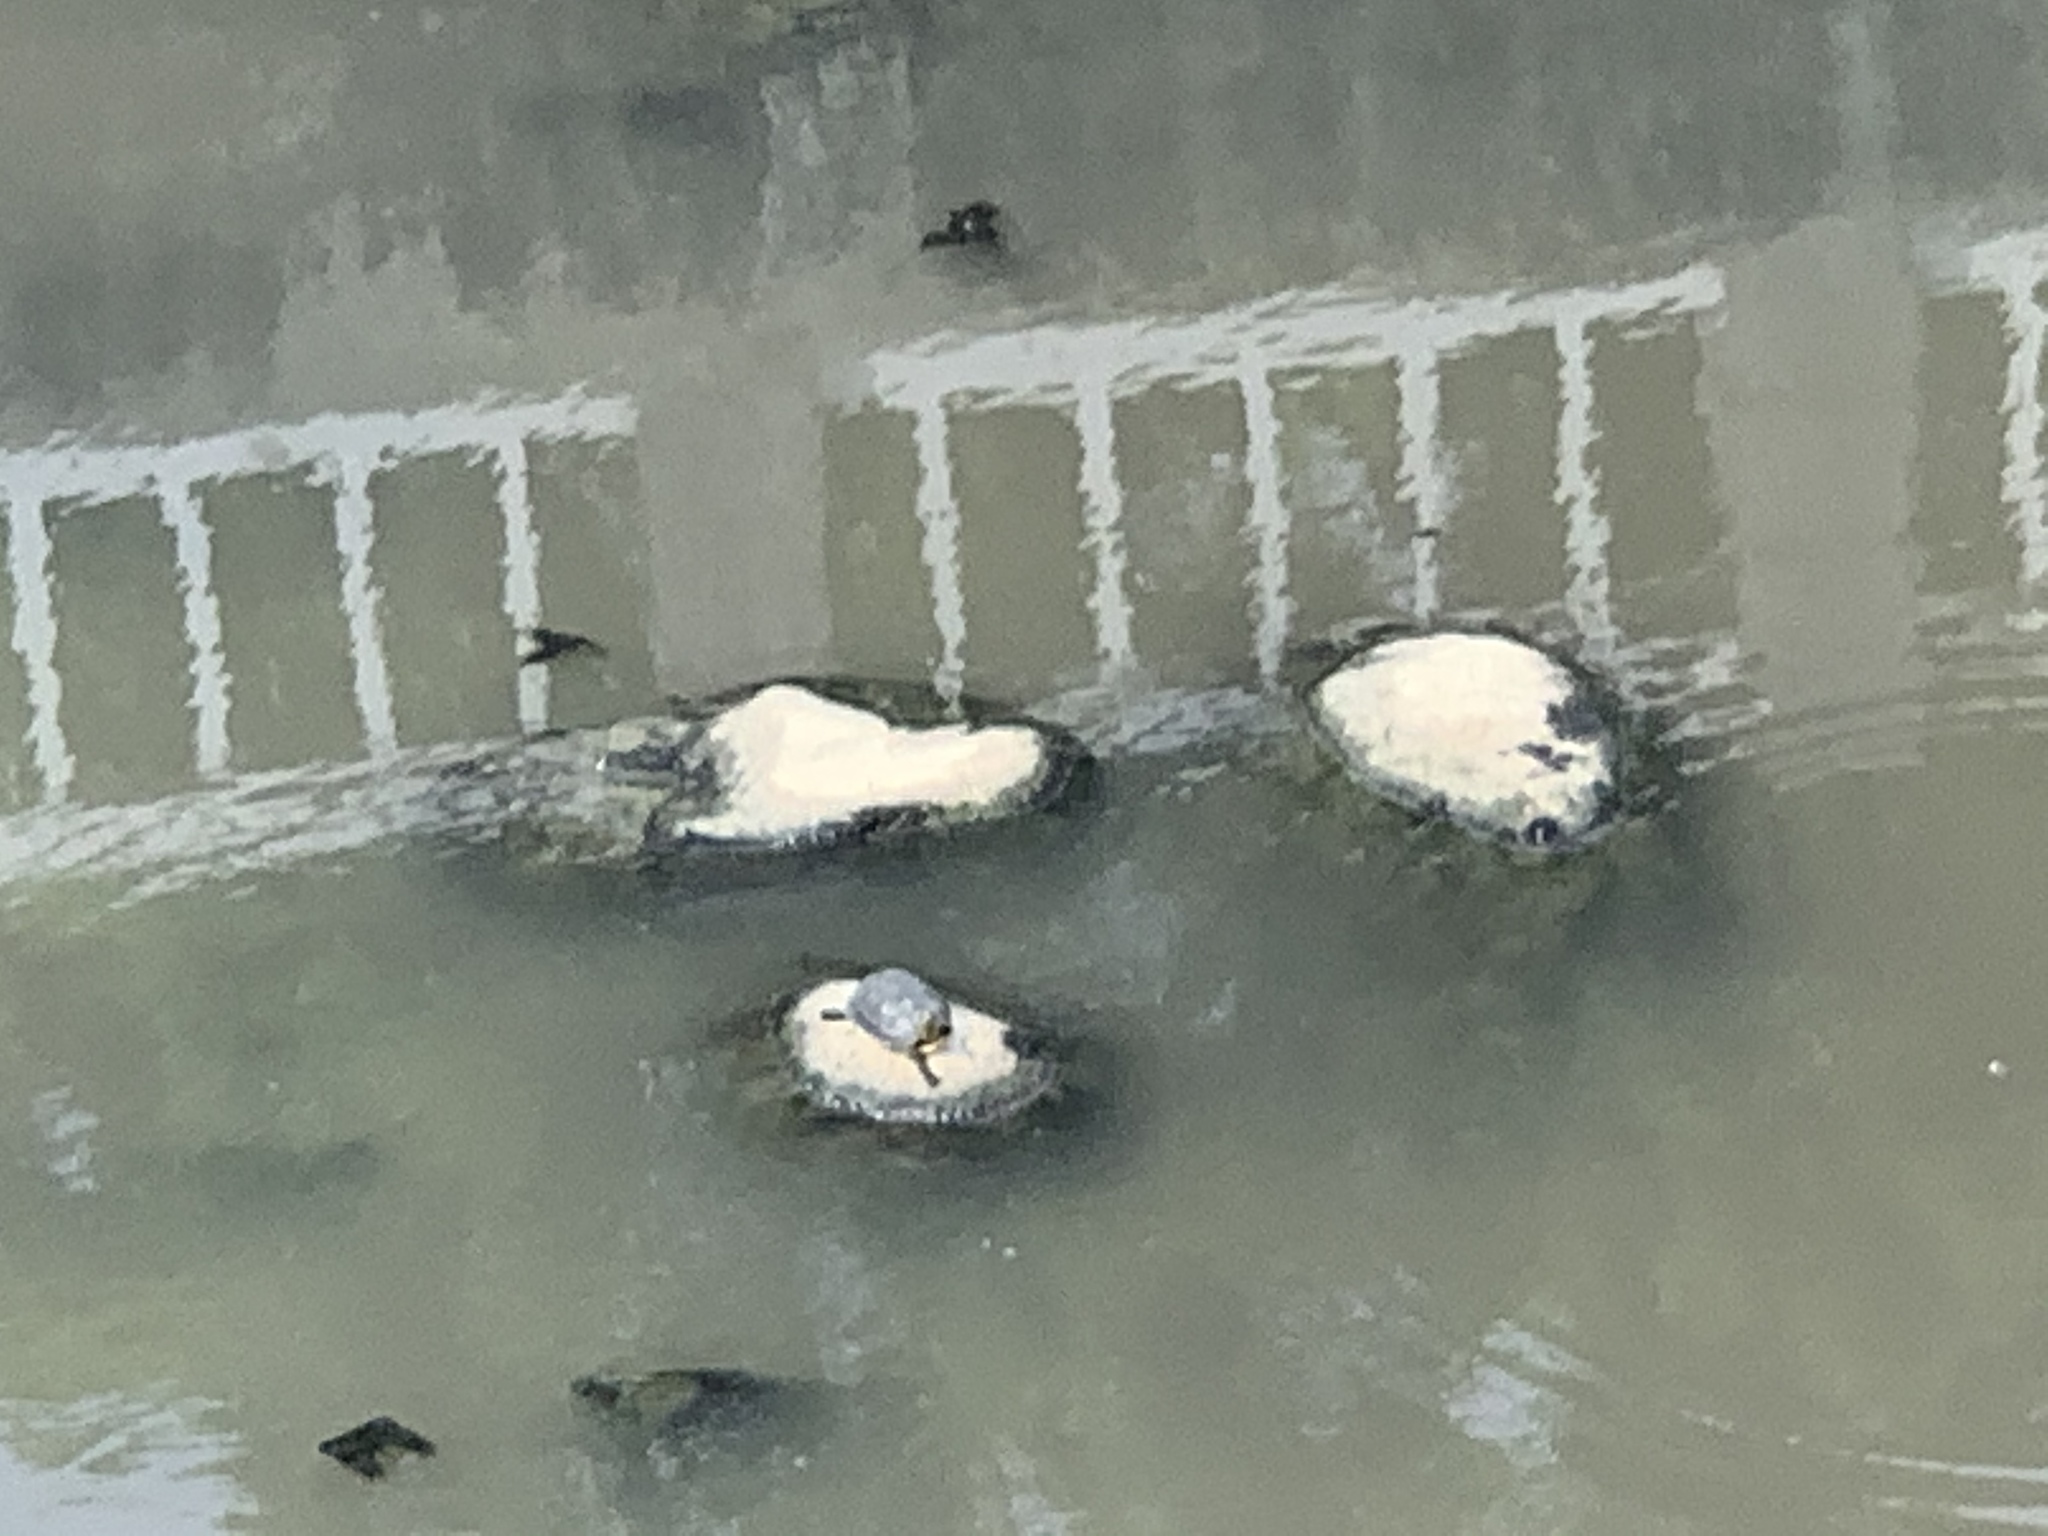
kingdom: Animalia
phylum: Chordata
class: Testudines
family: Geoemydidae
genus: Mauremys
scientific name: Mauremys sinensis
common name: Chinese stripe-necked turtle
